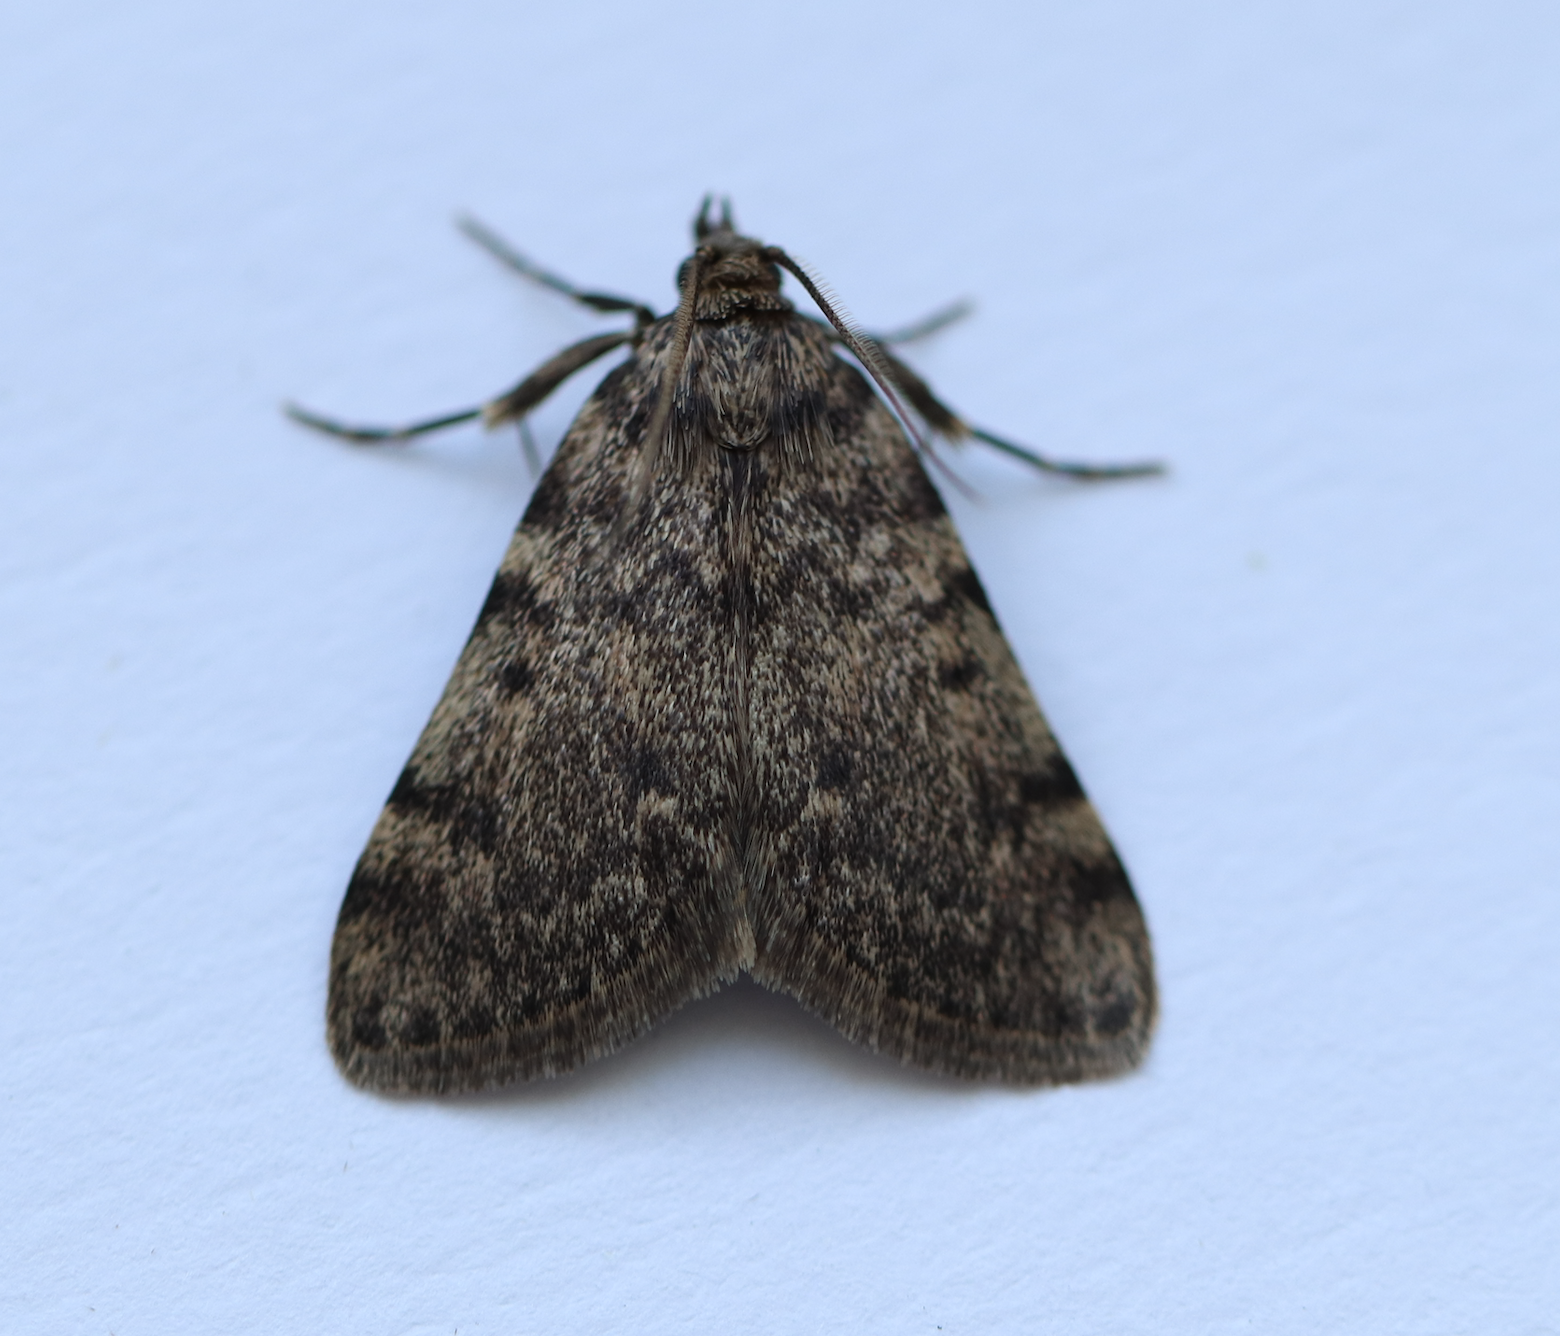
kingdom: Animalia
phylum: Arthropoda
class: Insecta
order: Lepidoptera
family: Pyralidae
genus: Aglossa
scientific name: Aglossa pinguinalis
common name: Large tabby
